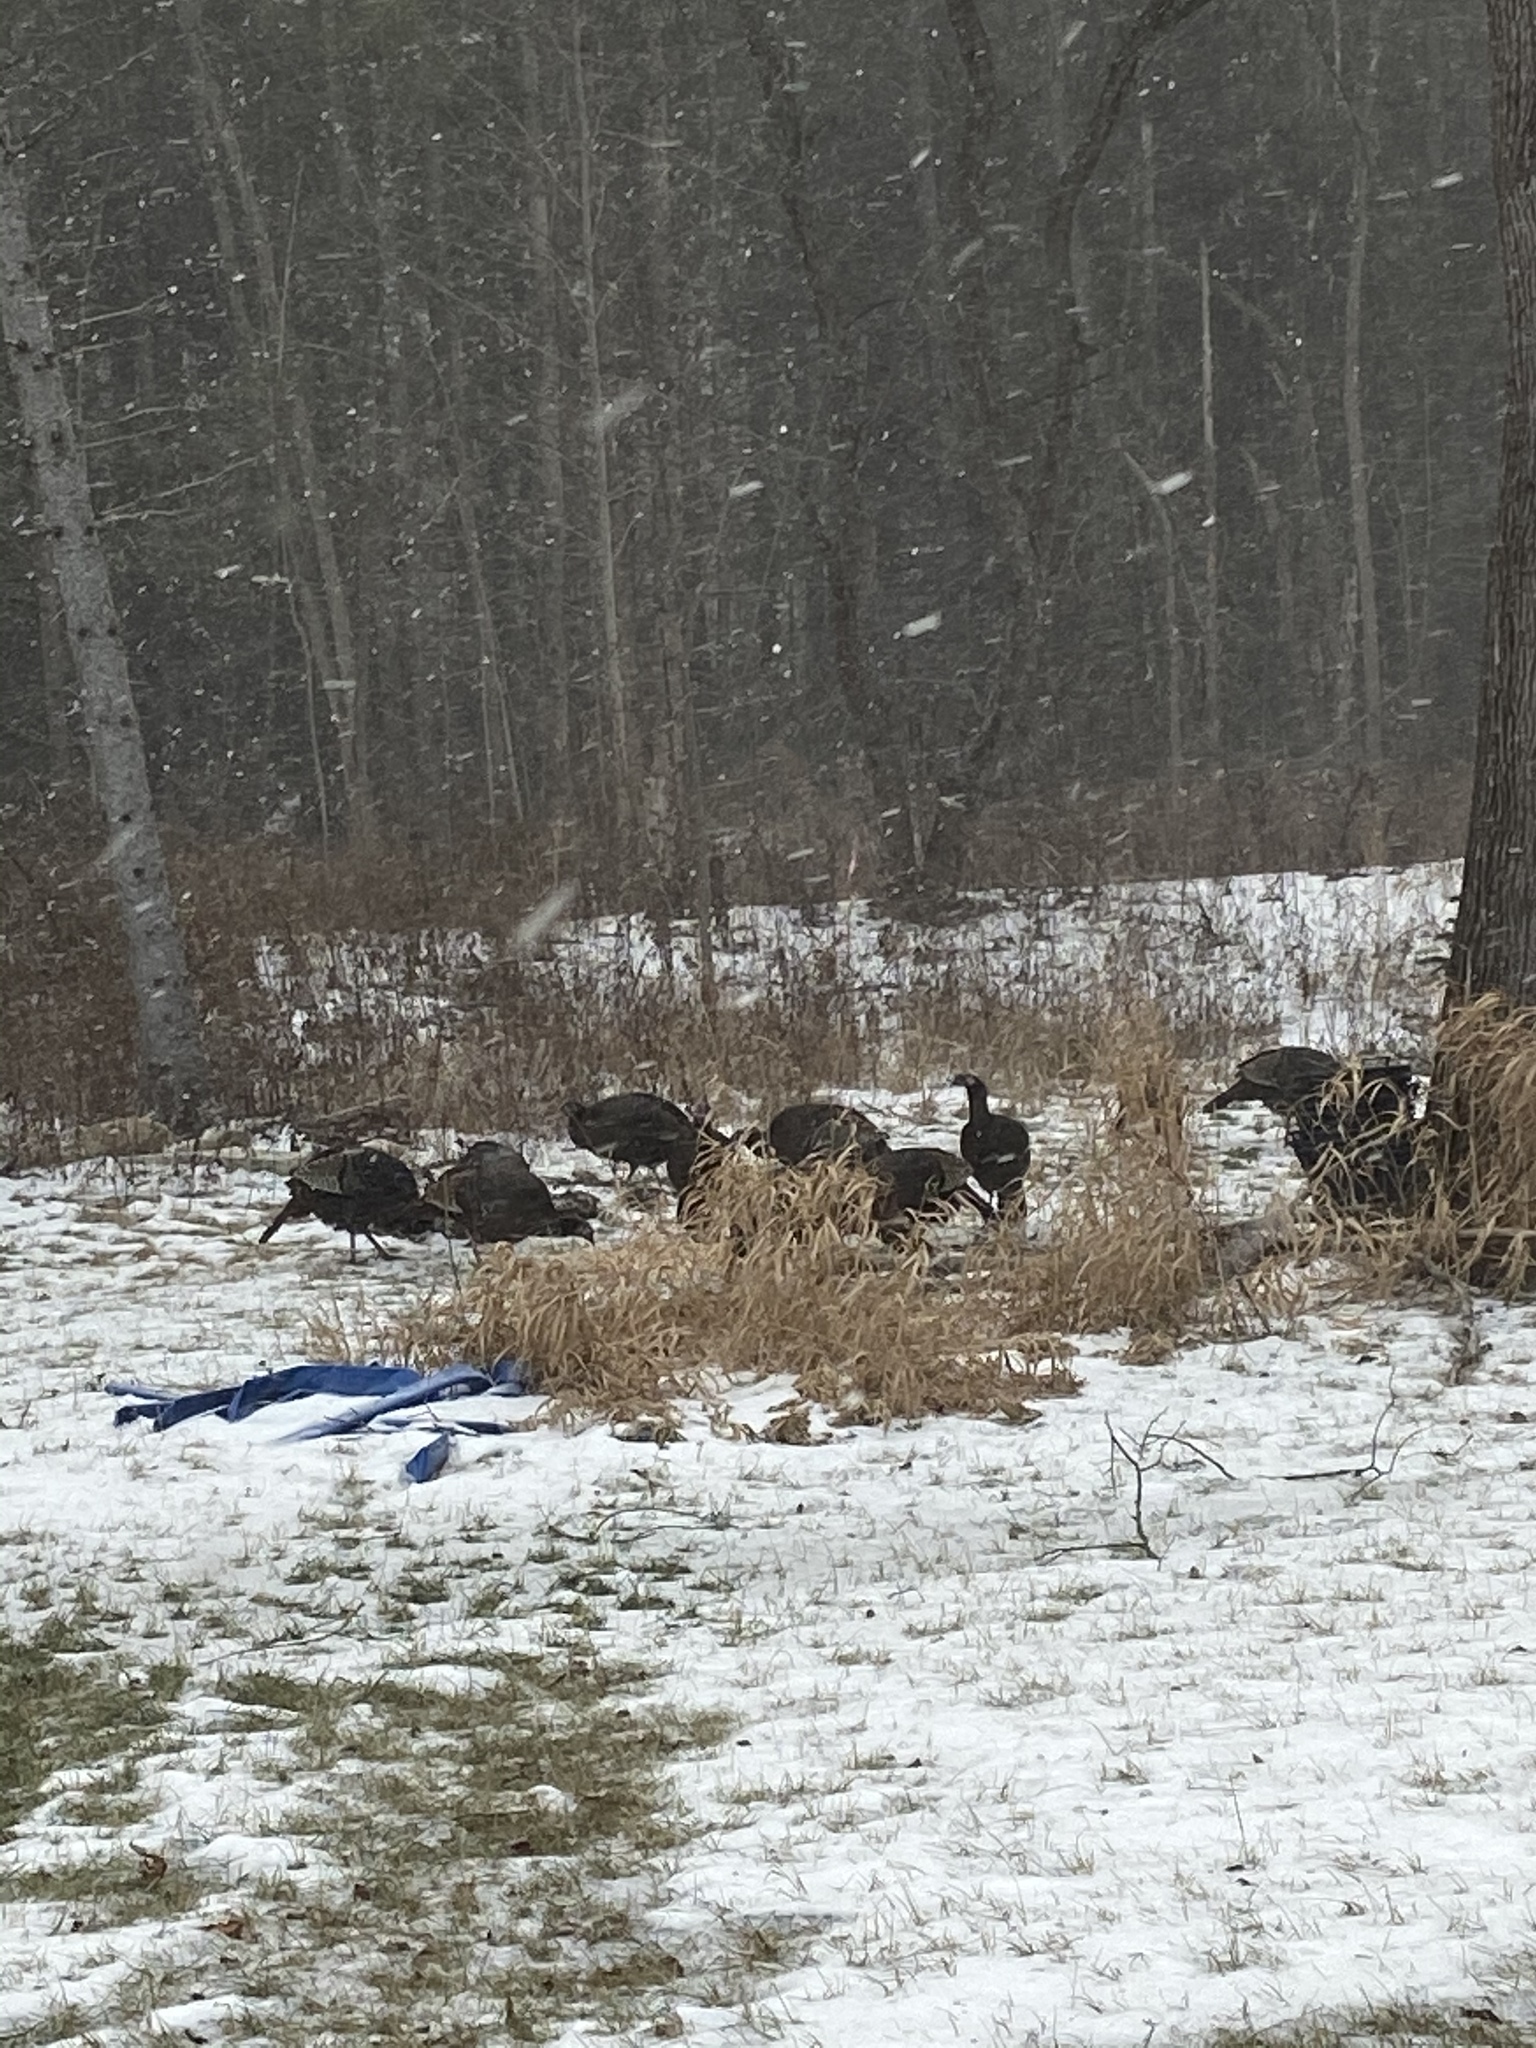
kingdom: Animalia
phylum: Chordata
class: Aves
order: Galliformes
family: Phasianidae
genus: Meleagris
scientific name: Meleagris gallopavo
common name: Wild turkey
